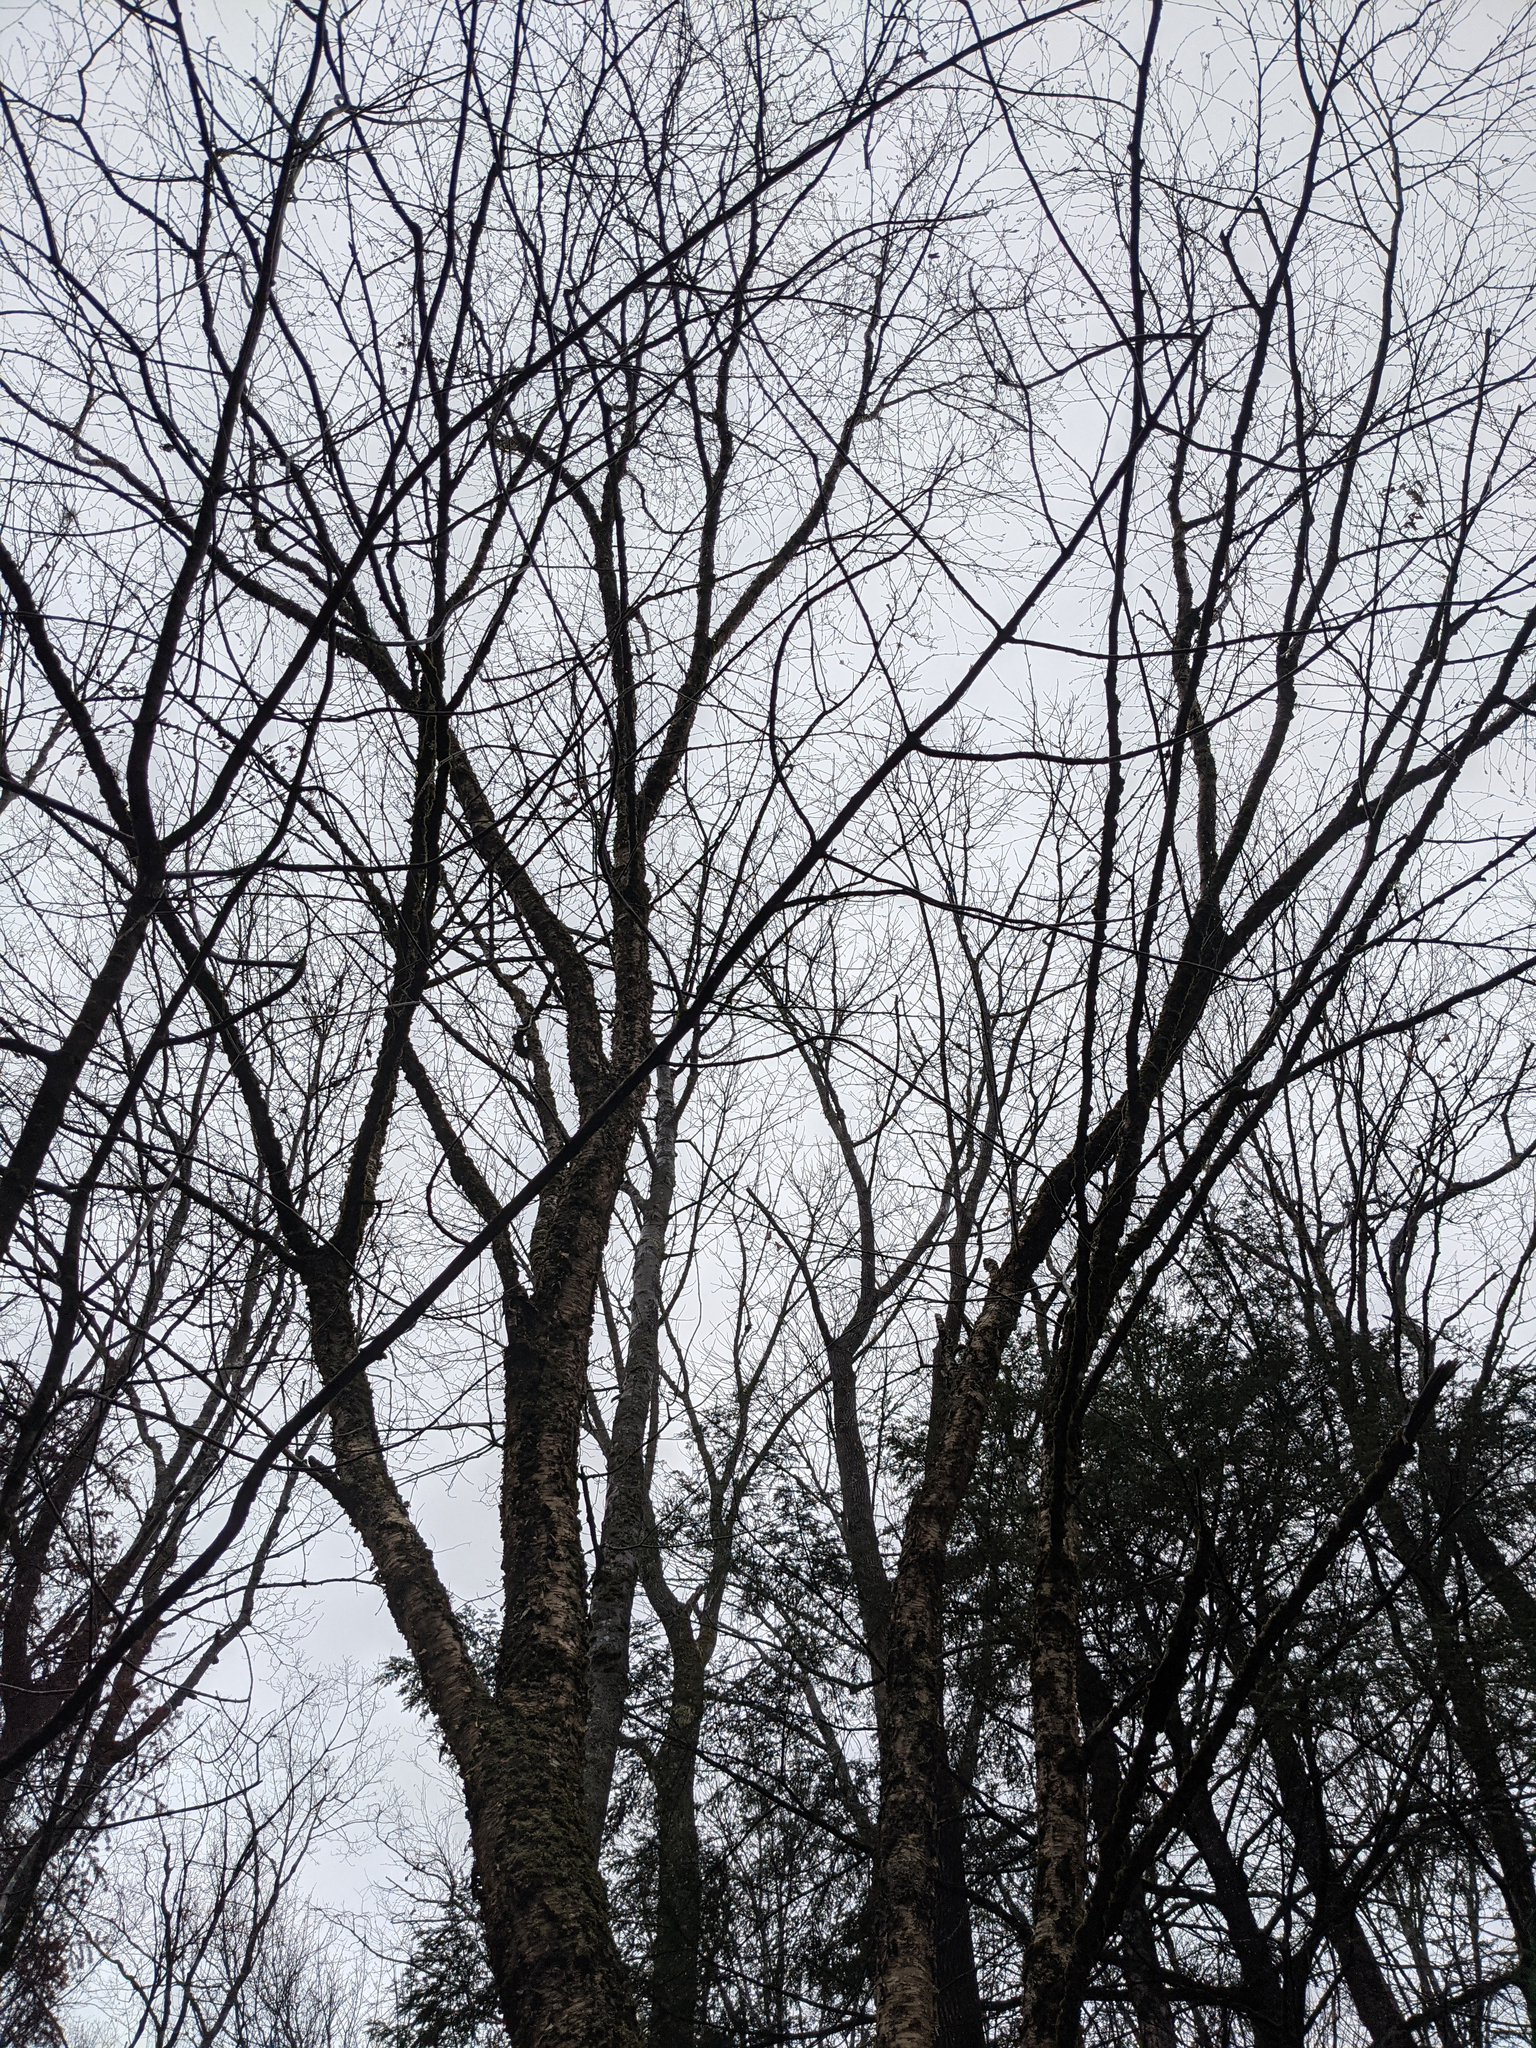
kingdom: Plantae
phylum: Tracheophyta
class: Magnoliopsida
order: Fagales
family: Betulaceae
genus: Betula
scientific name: Betula alleghaniensis
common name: Yellow birch
